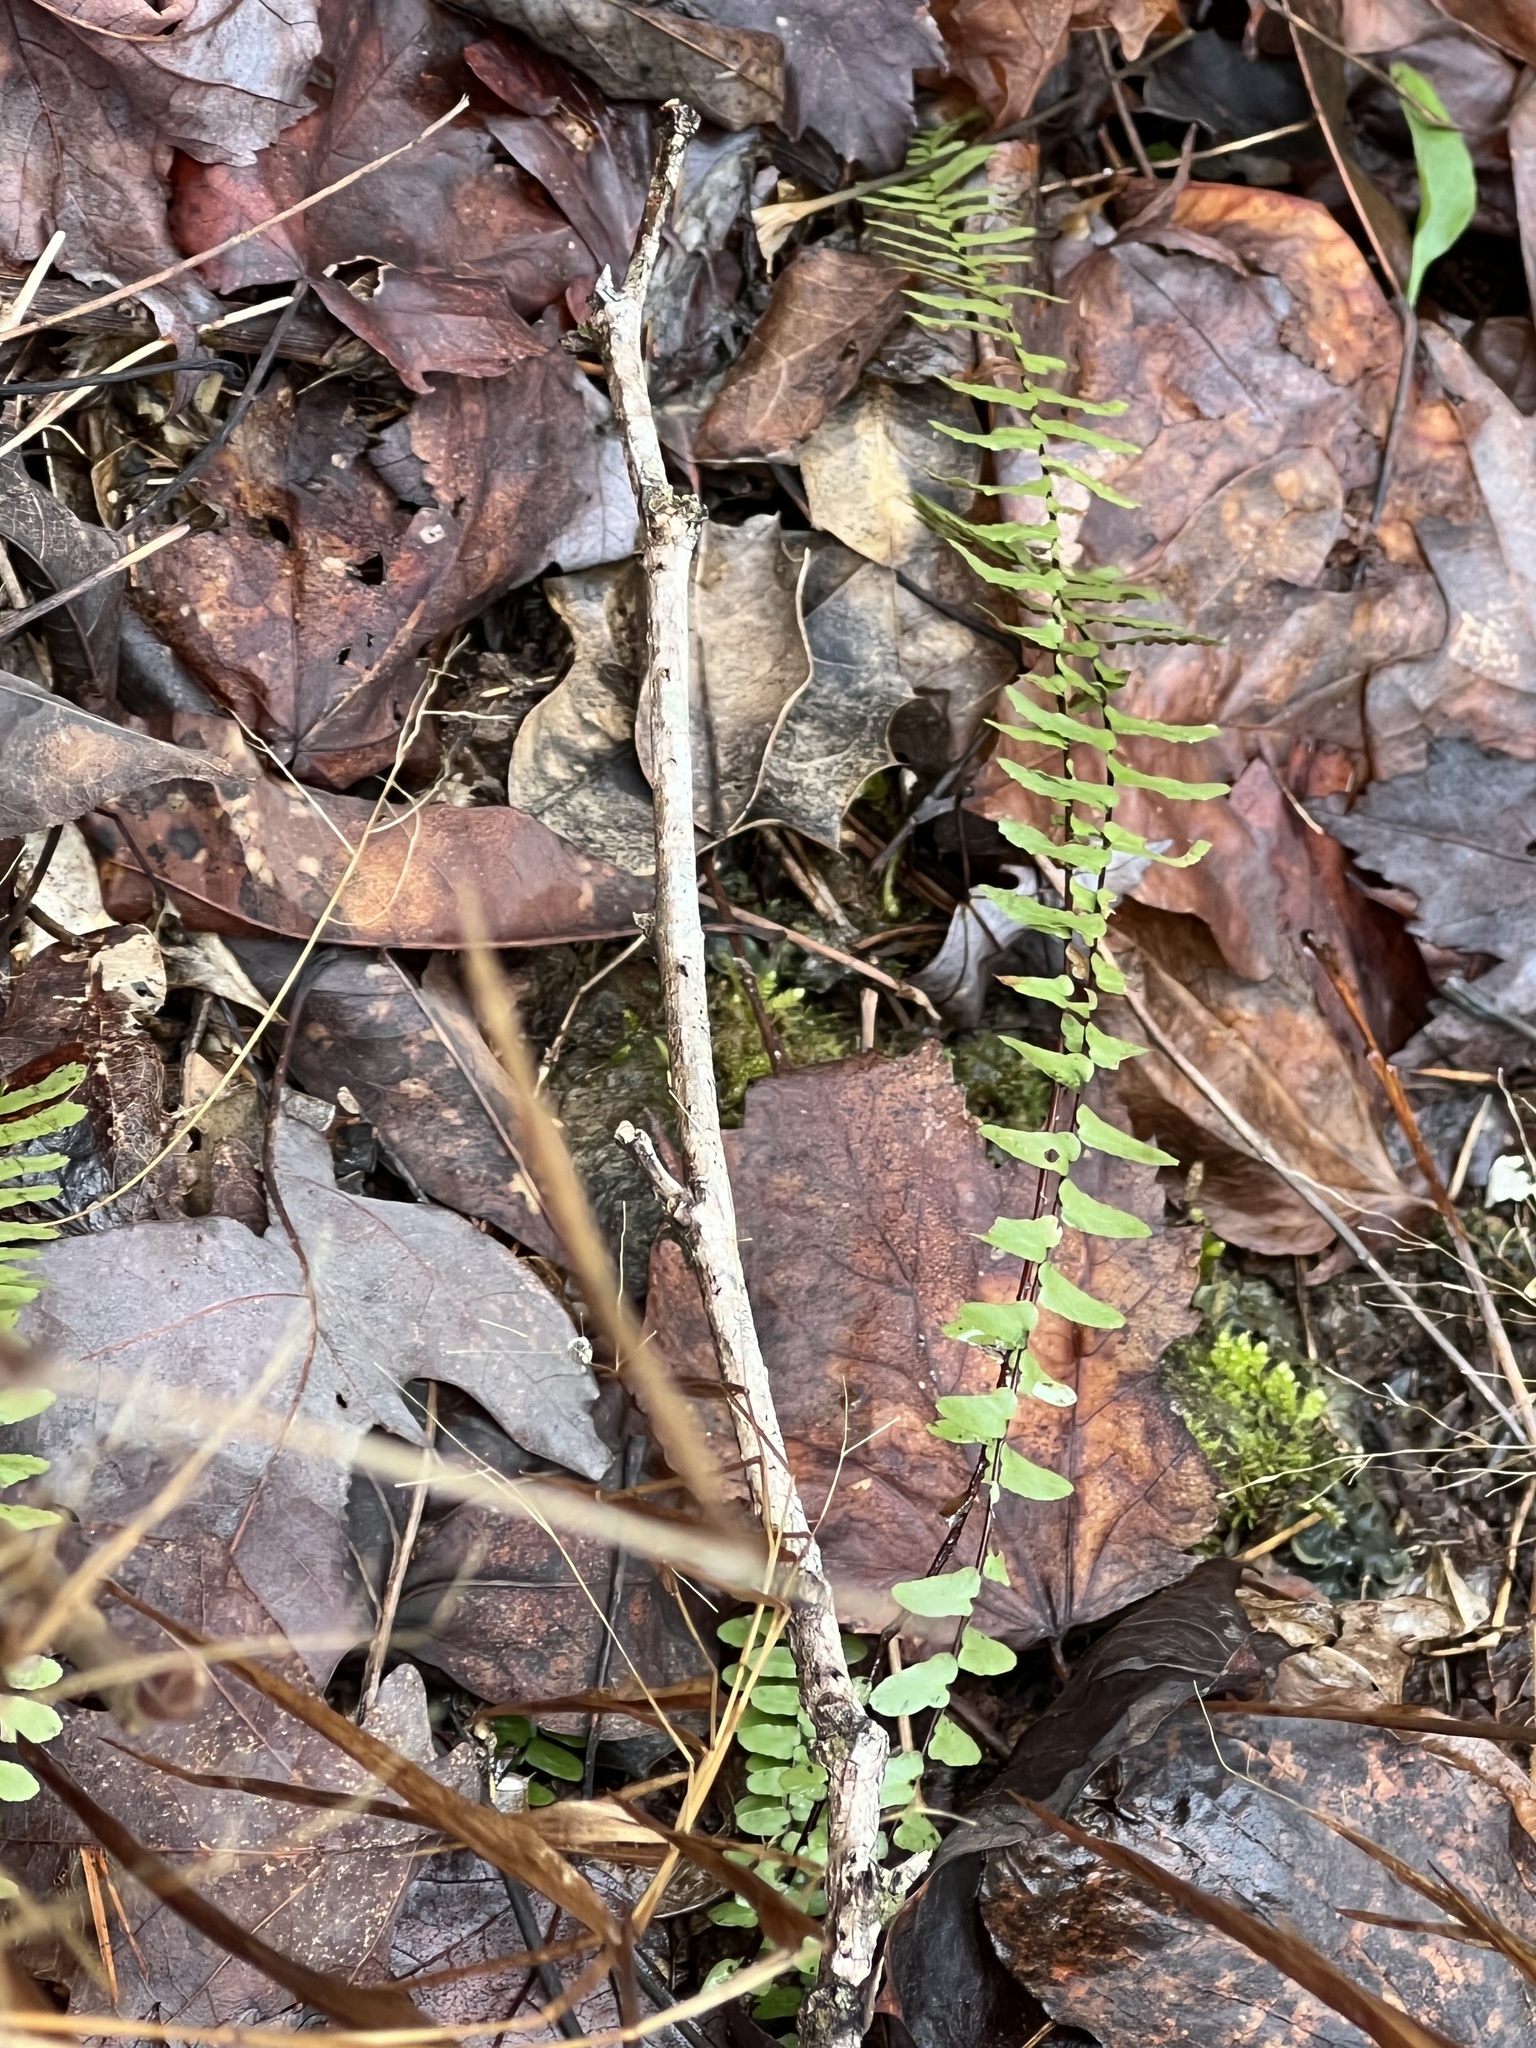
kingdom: Plantae
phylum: Tracheophyta
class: Polypodiopsida
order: Polypodiales
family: Aspleniaceae
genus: Asplenium
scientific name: Asplenium platyneuron
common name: Ebony spleenwort
